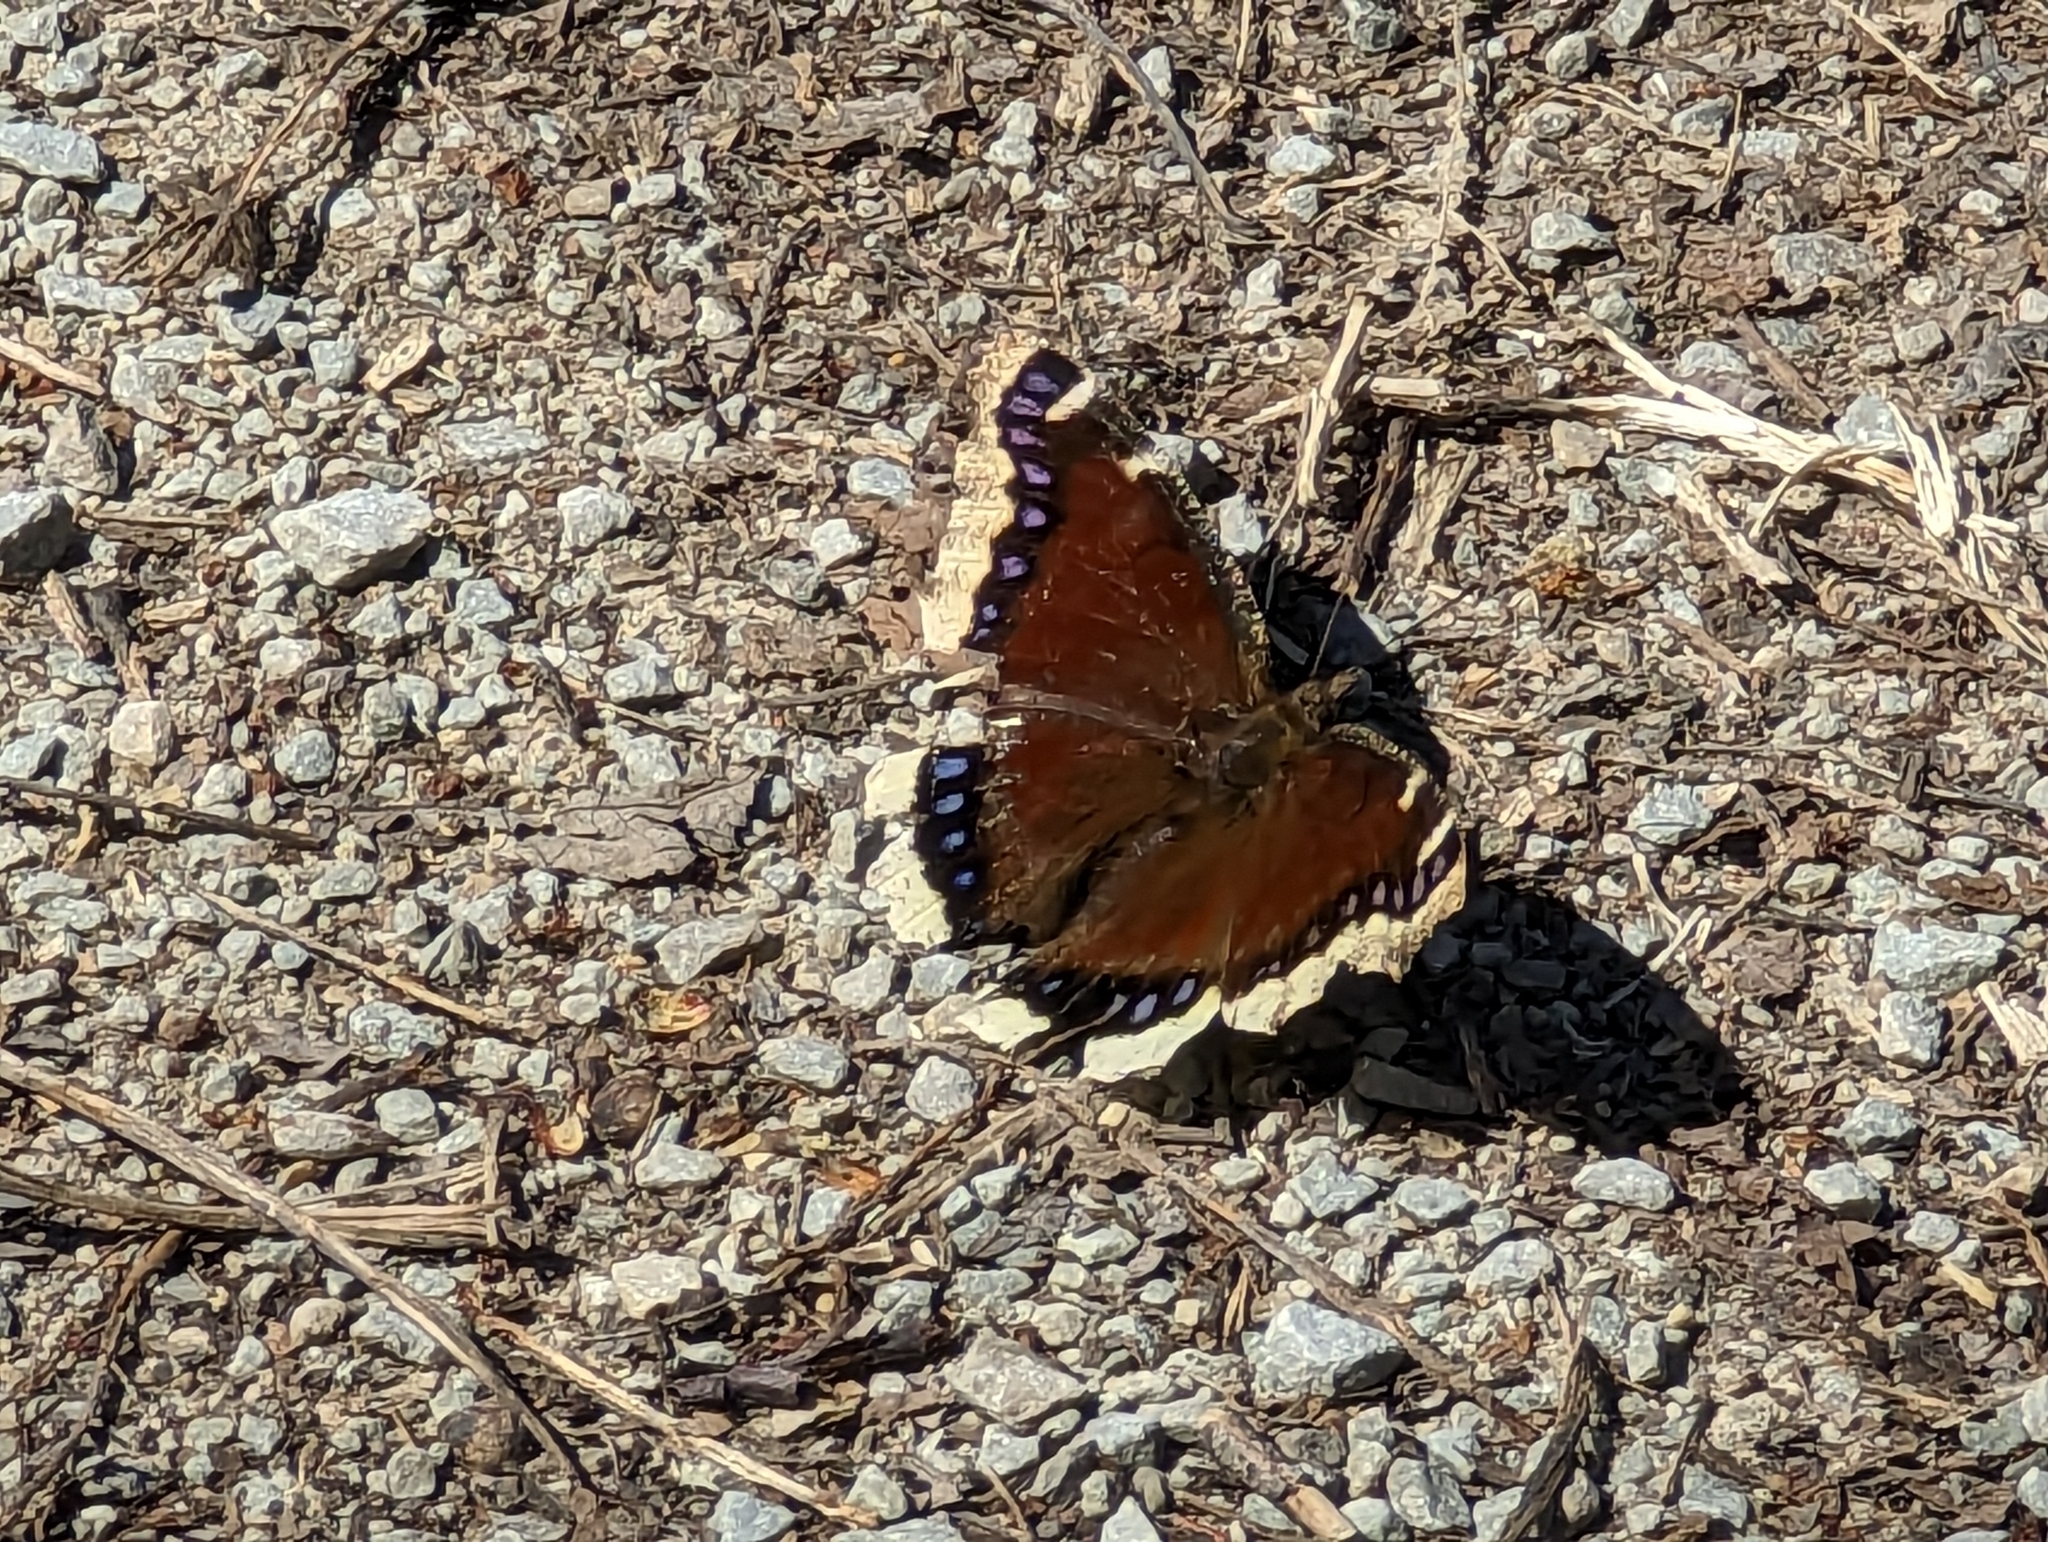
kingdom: Animalia
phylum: Arthropoda
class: Insecta
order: Lepidoptera
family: Nymphalidae
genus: Nymphalis
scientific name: Nymphalis antiopa
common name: Camberwell beauty
